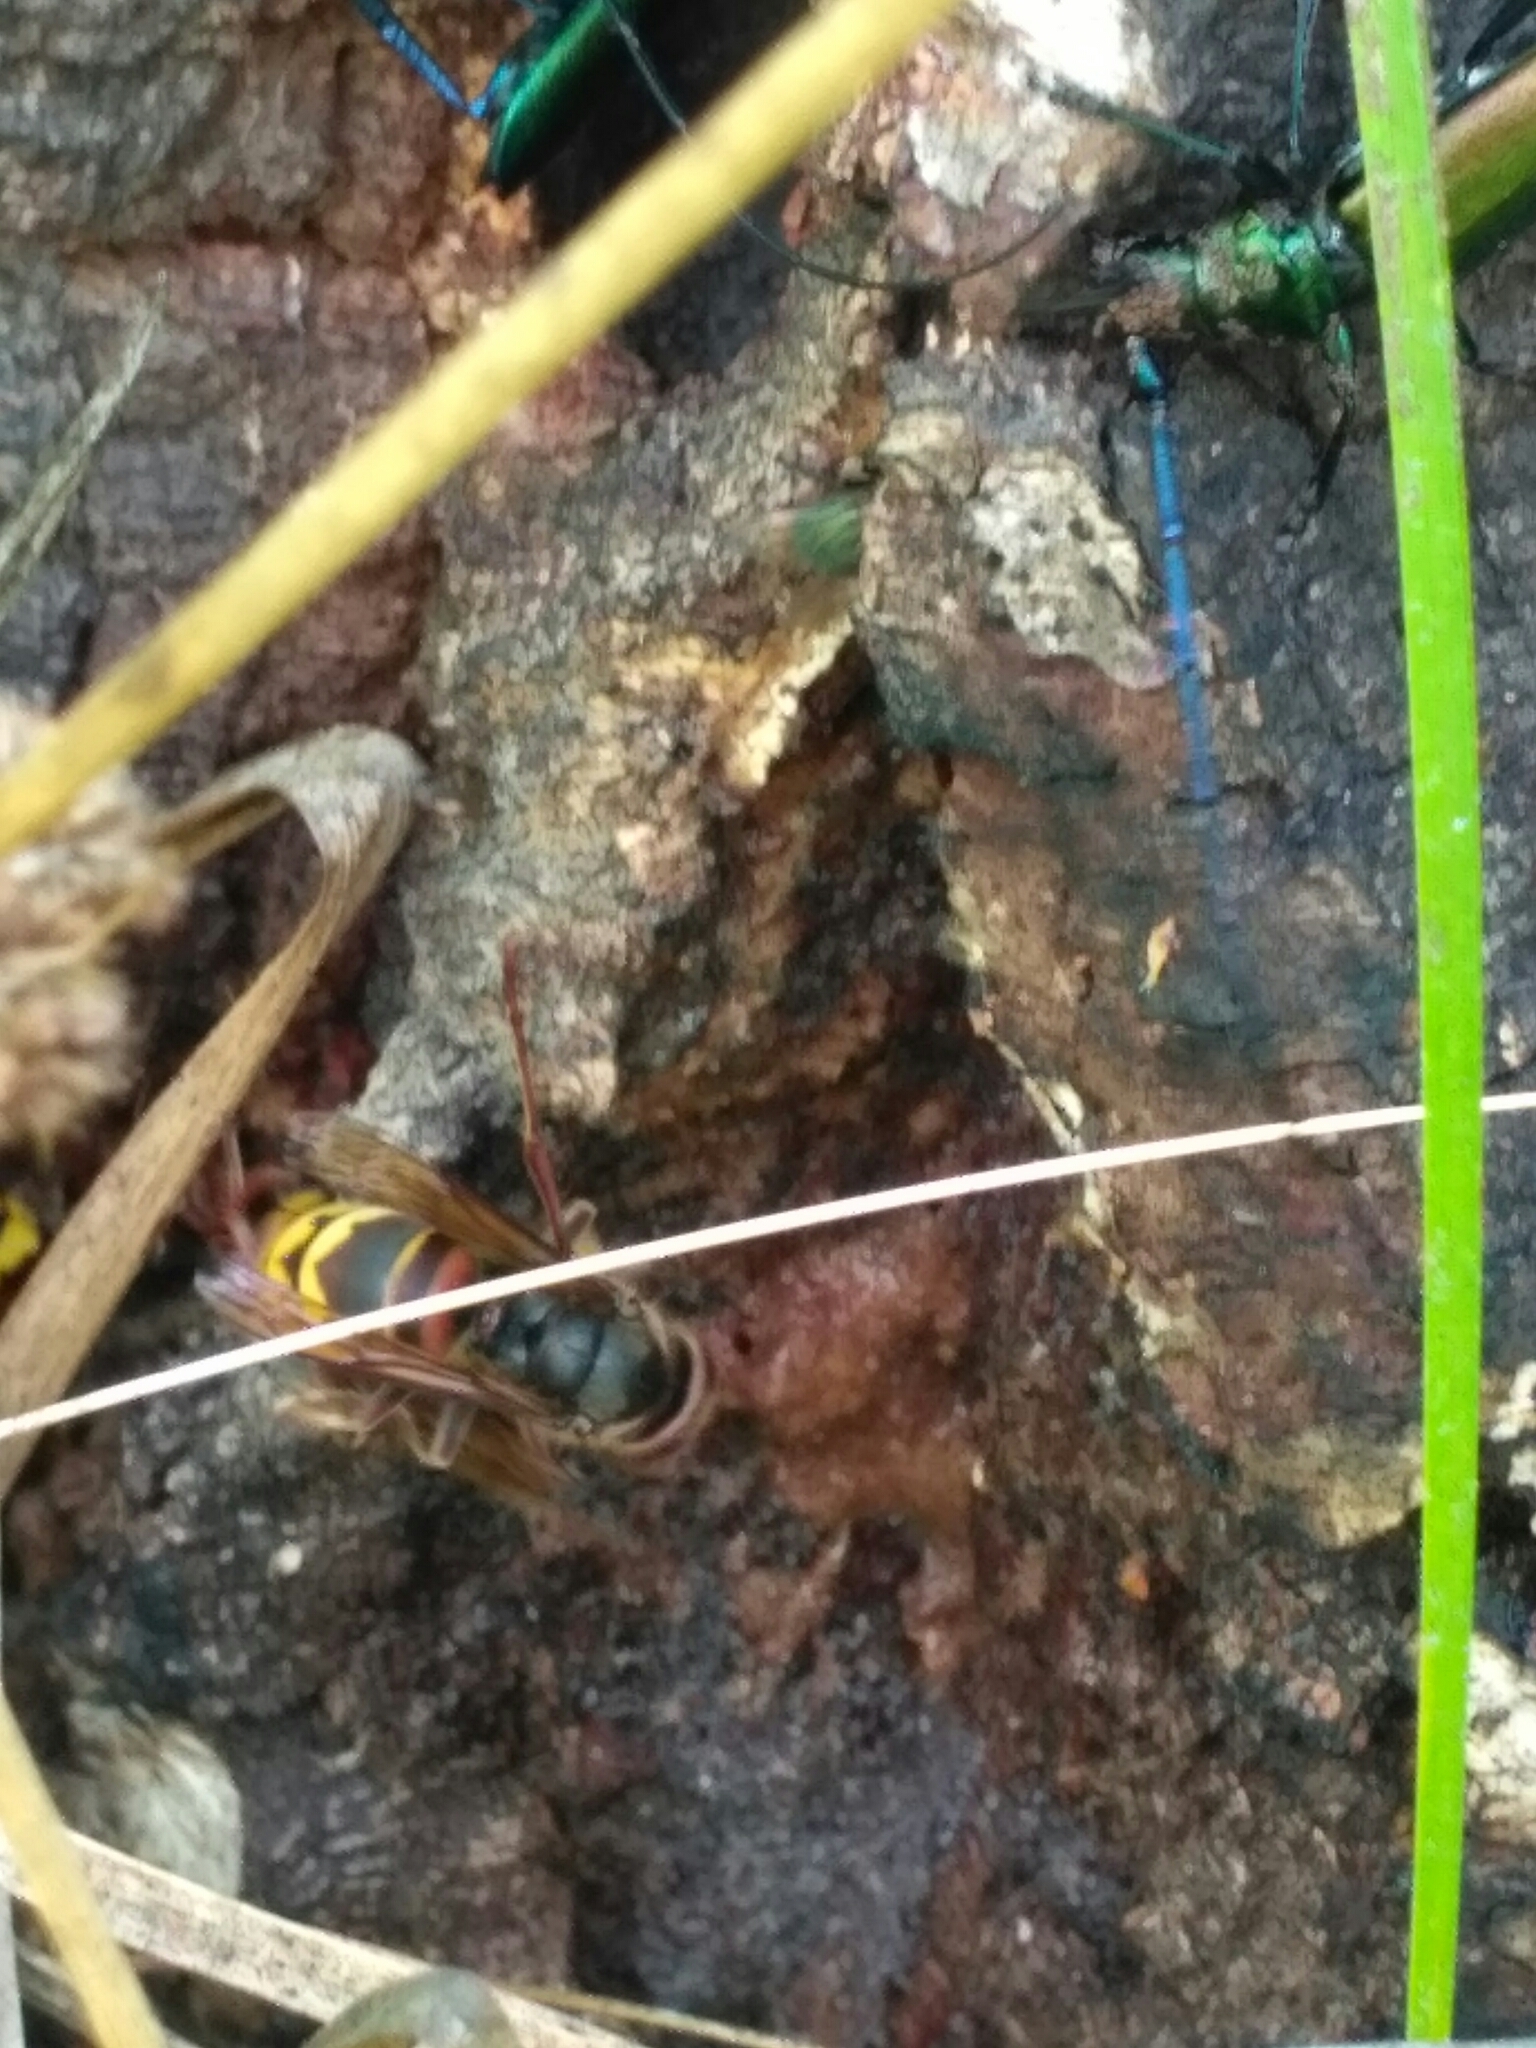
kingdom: Animalia
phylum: Arthropoda
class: Insecta
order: Hymenoptera
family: Vespidae
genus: Vespa
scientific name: Vespa crabro
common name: Hornet
